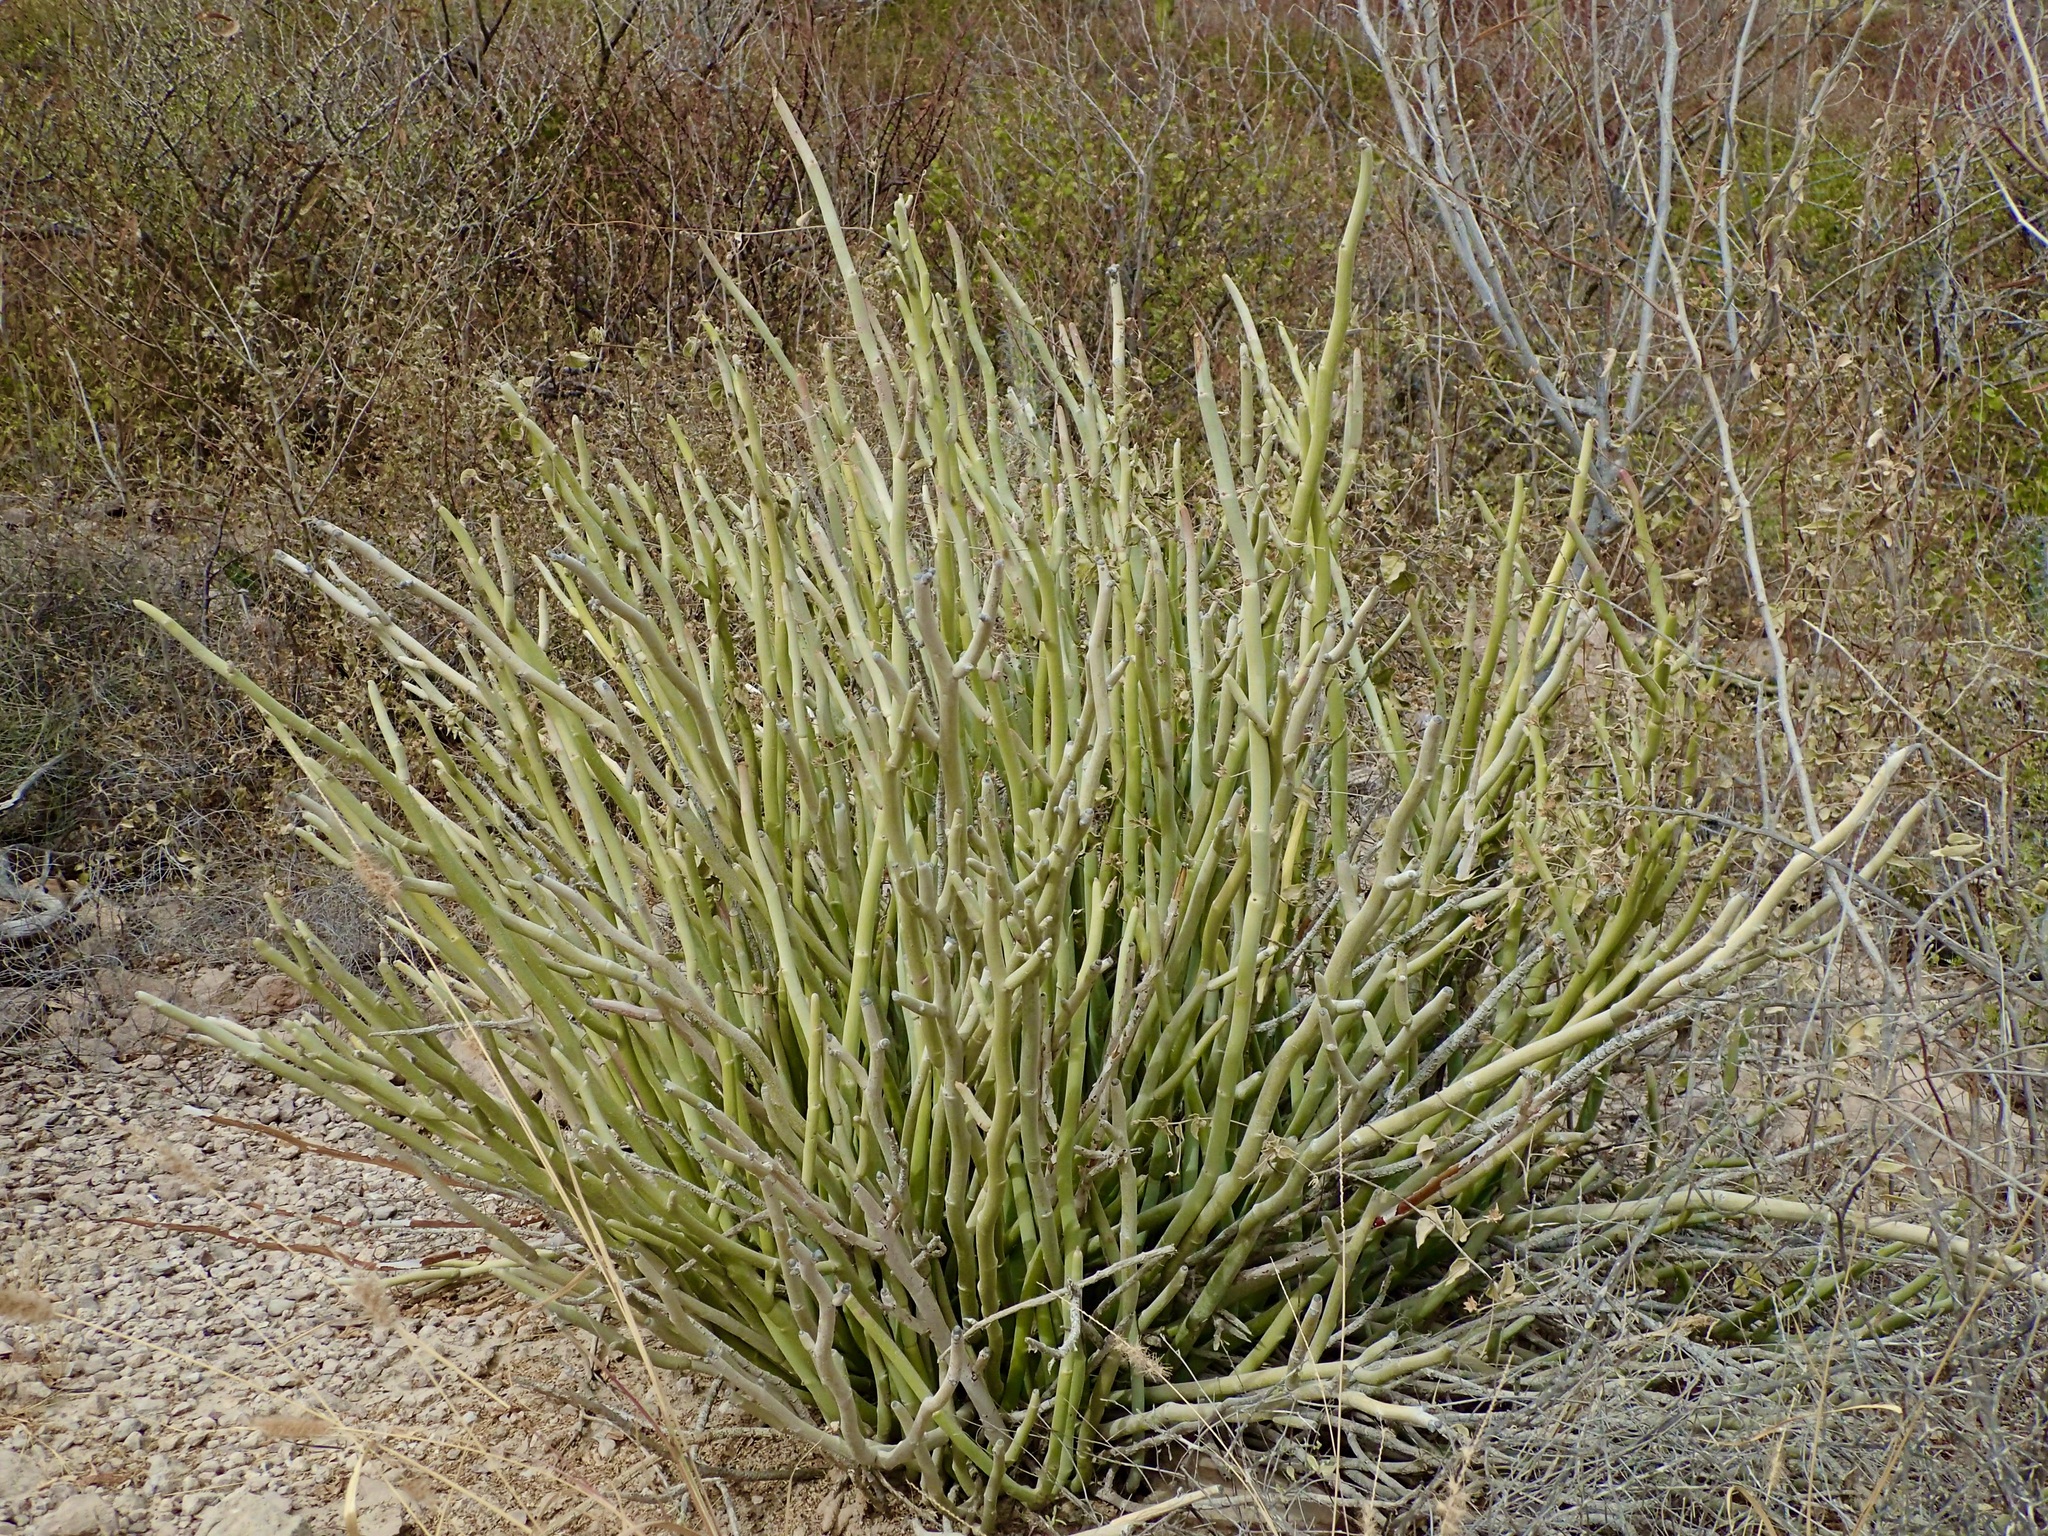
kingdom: Plantae
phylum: Tracheophyta
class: Magnoliopsida
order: Malpighiales
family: Euphorbiaceae
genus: Euphorbia
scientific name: Euphorbia lomelii
